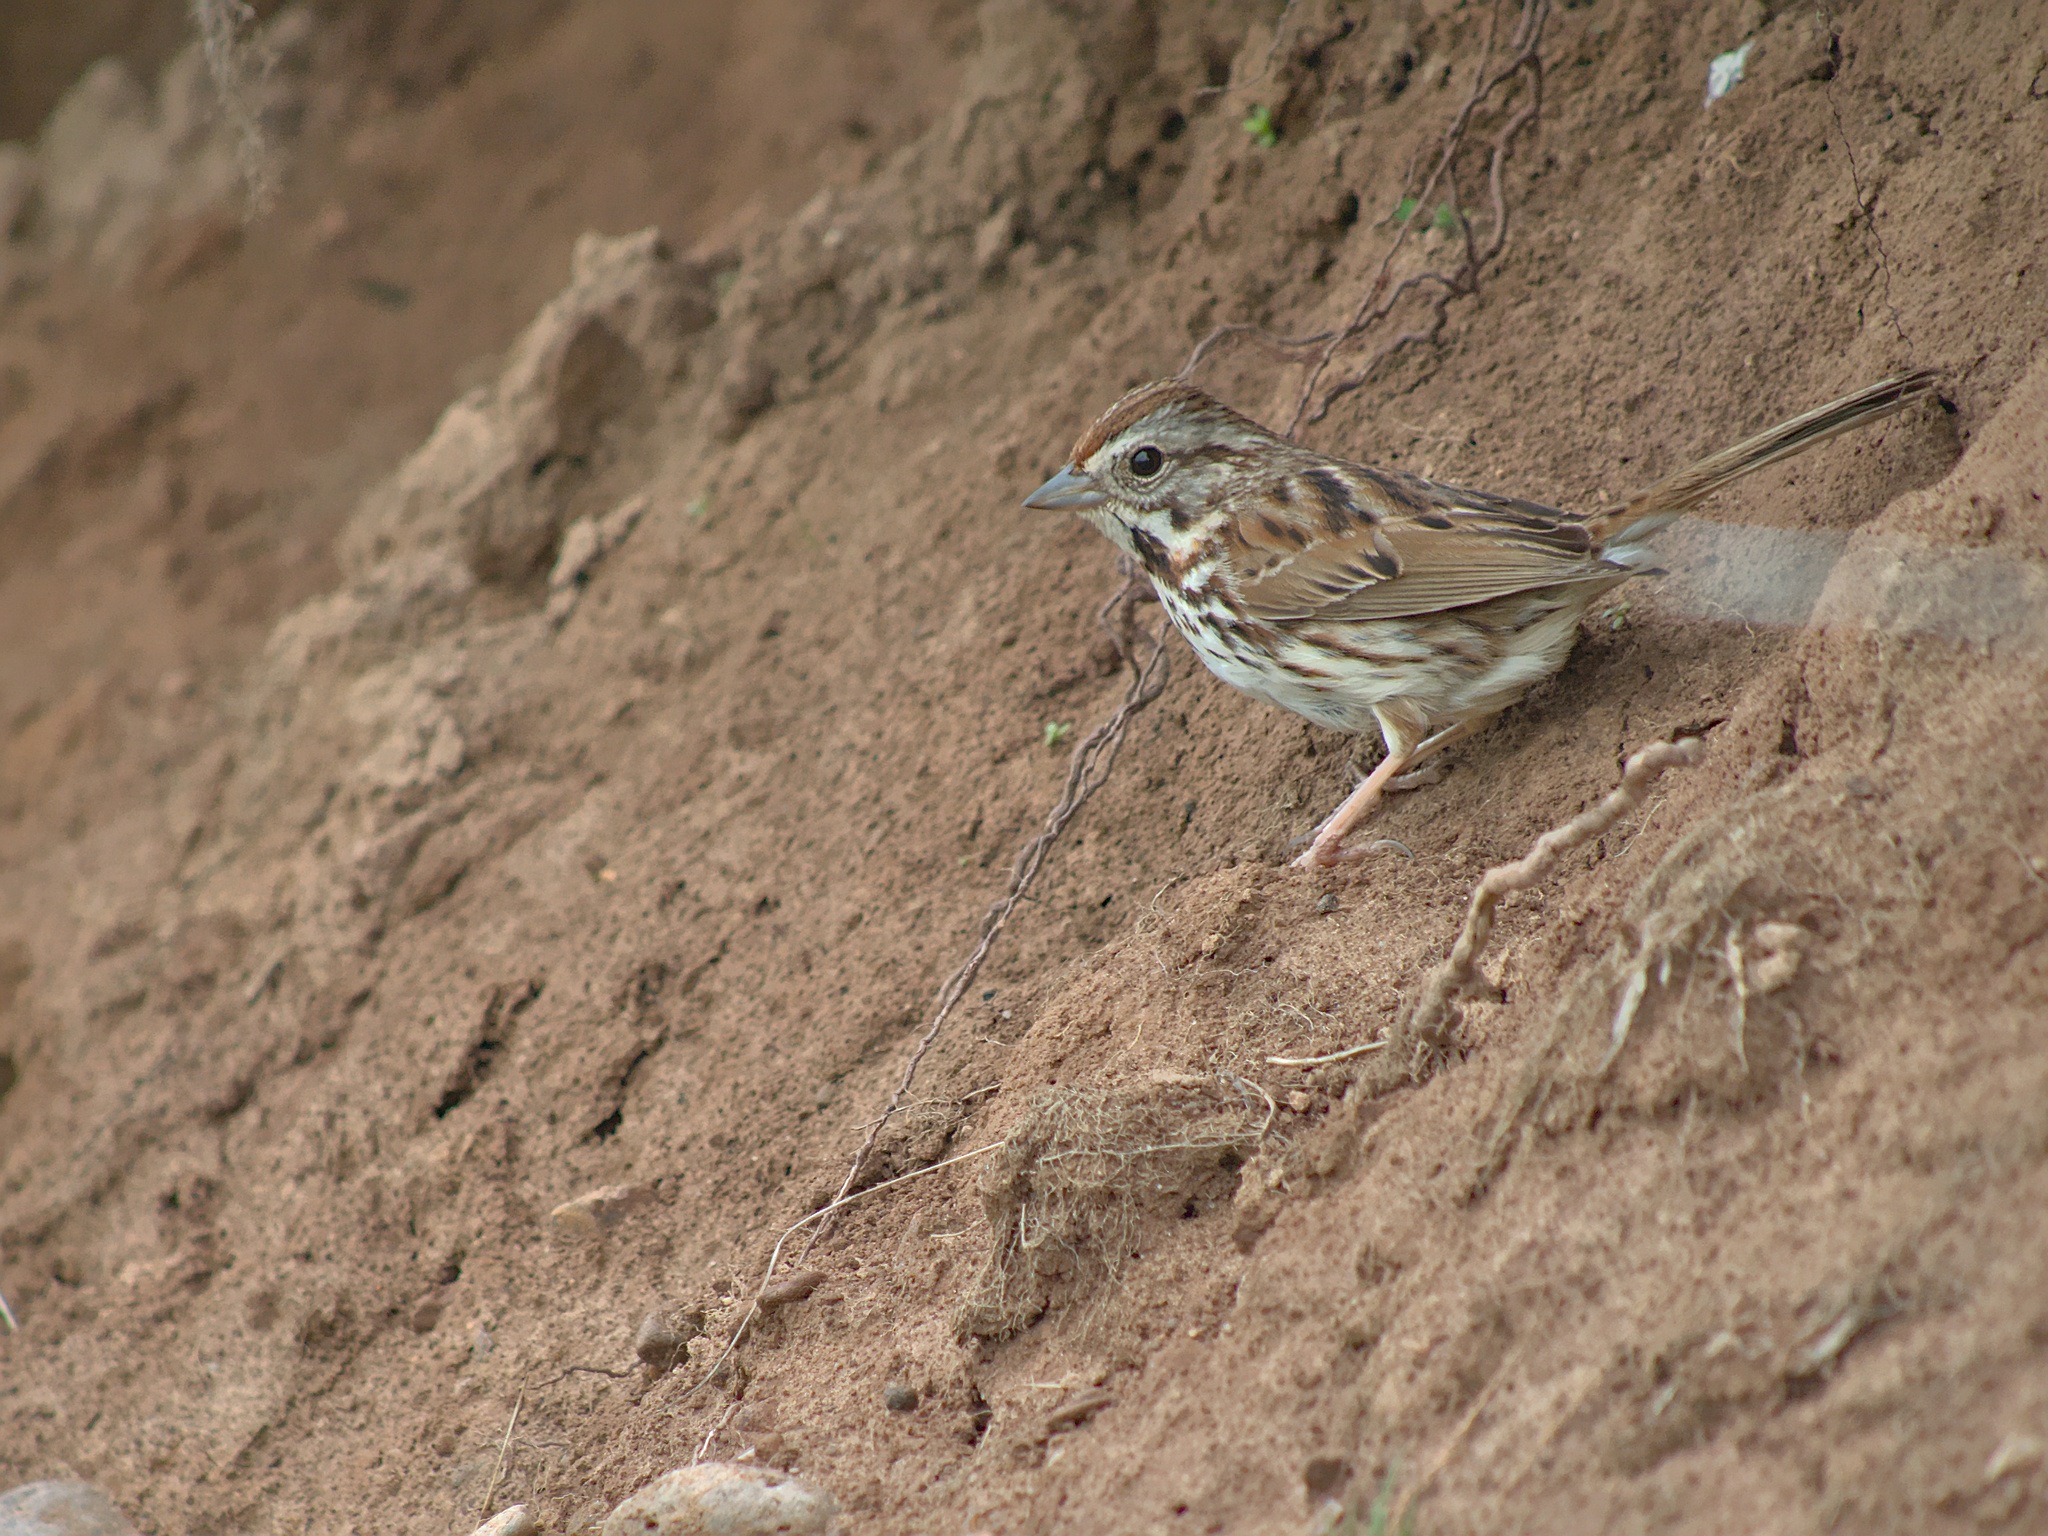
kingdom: Animalia
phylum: Chordata
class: Aves
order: Passeriformes
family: Passerellidae
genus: Melospiza
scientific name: Melospiza melodia
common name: Song sparrow
